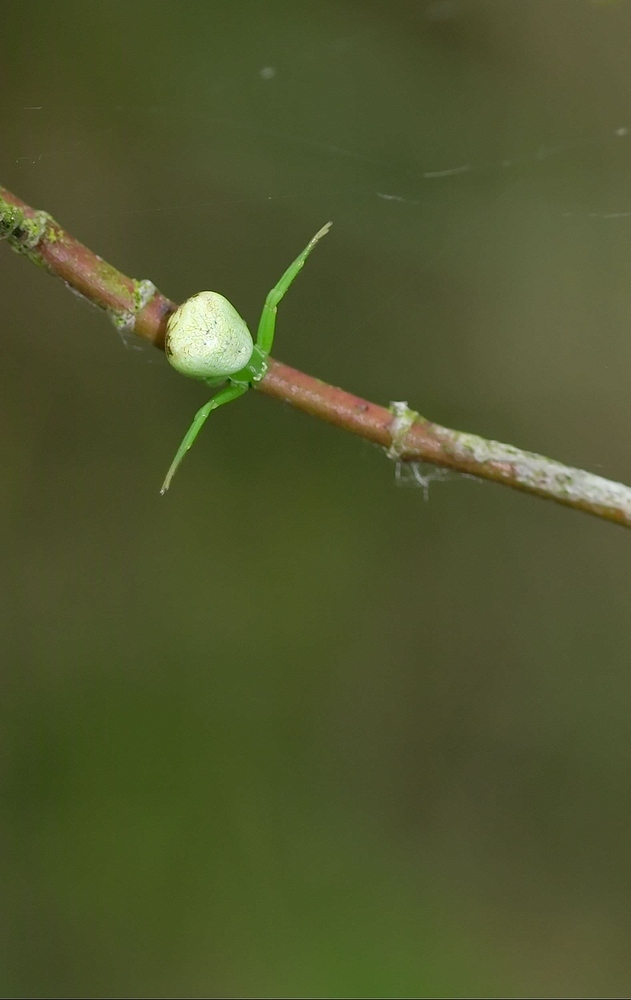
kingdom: Animalia
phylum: Arthropoda
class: Arachnida
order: Araneae
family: Thomisidae
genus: Ebrechtella
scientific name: Ebrechtella tricuspidata
